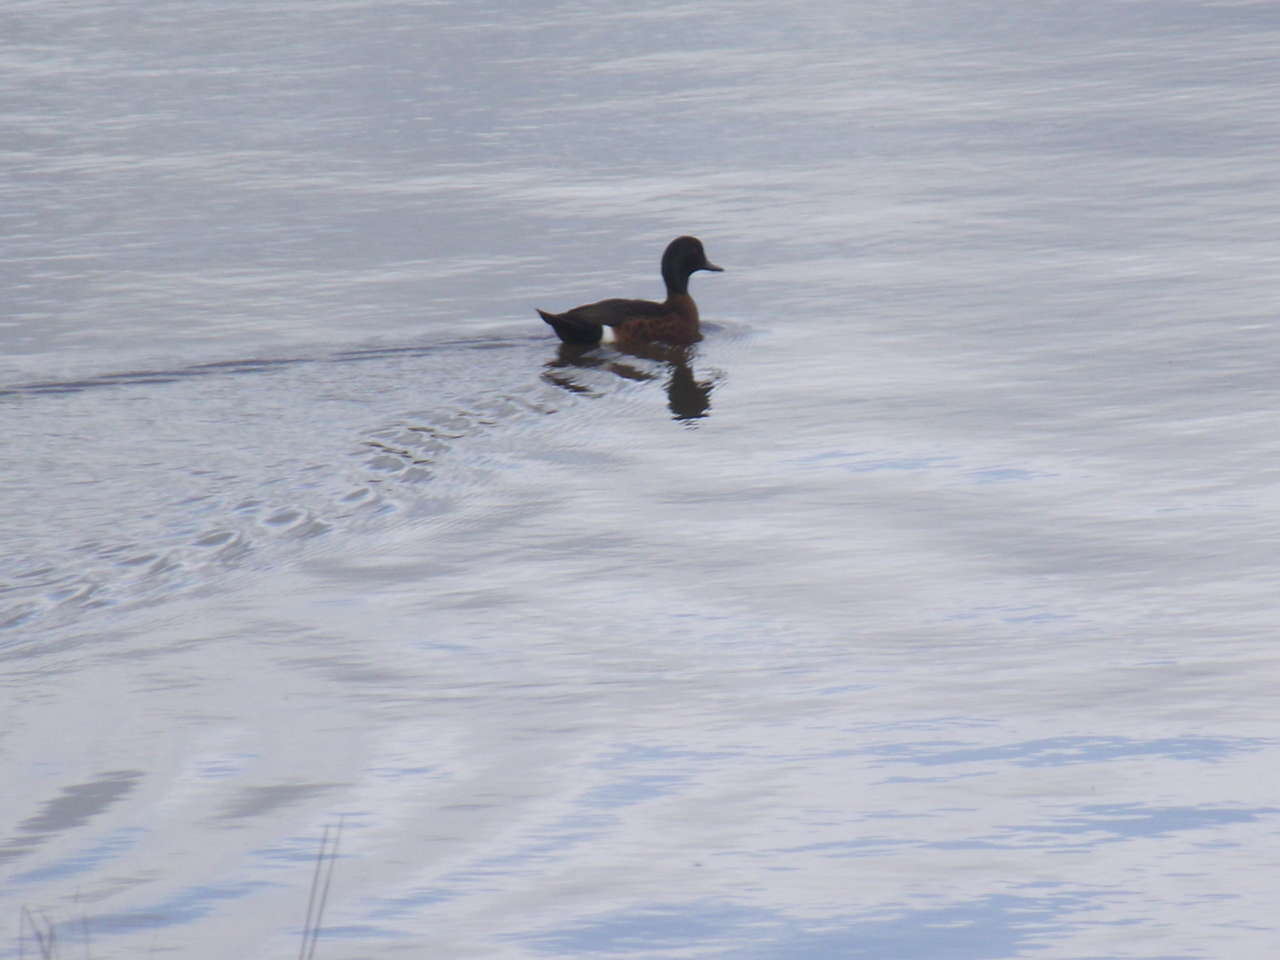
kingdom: Animalia
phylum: Chordata
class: Aves
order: Anseriformes
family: Anatidae
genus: Anas
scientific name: Anas castanea
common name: Chestnut teal
